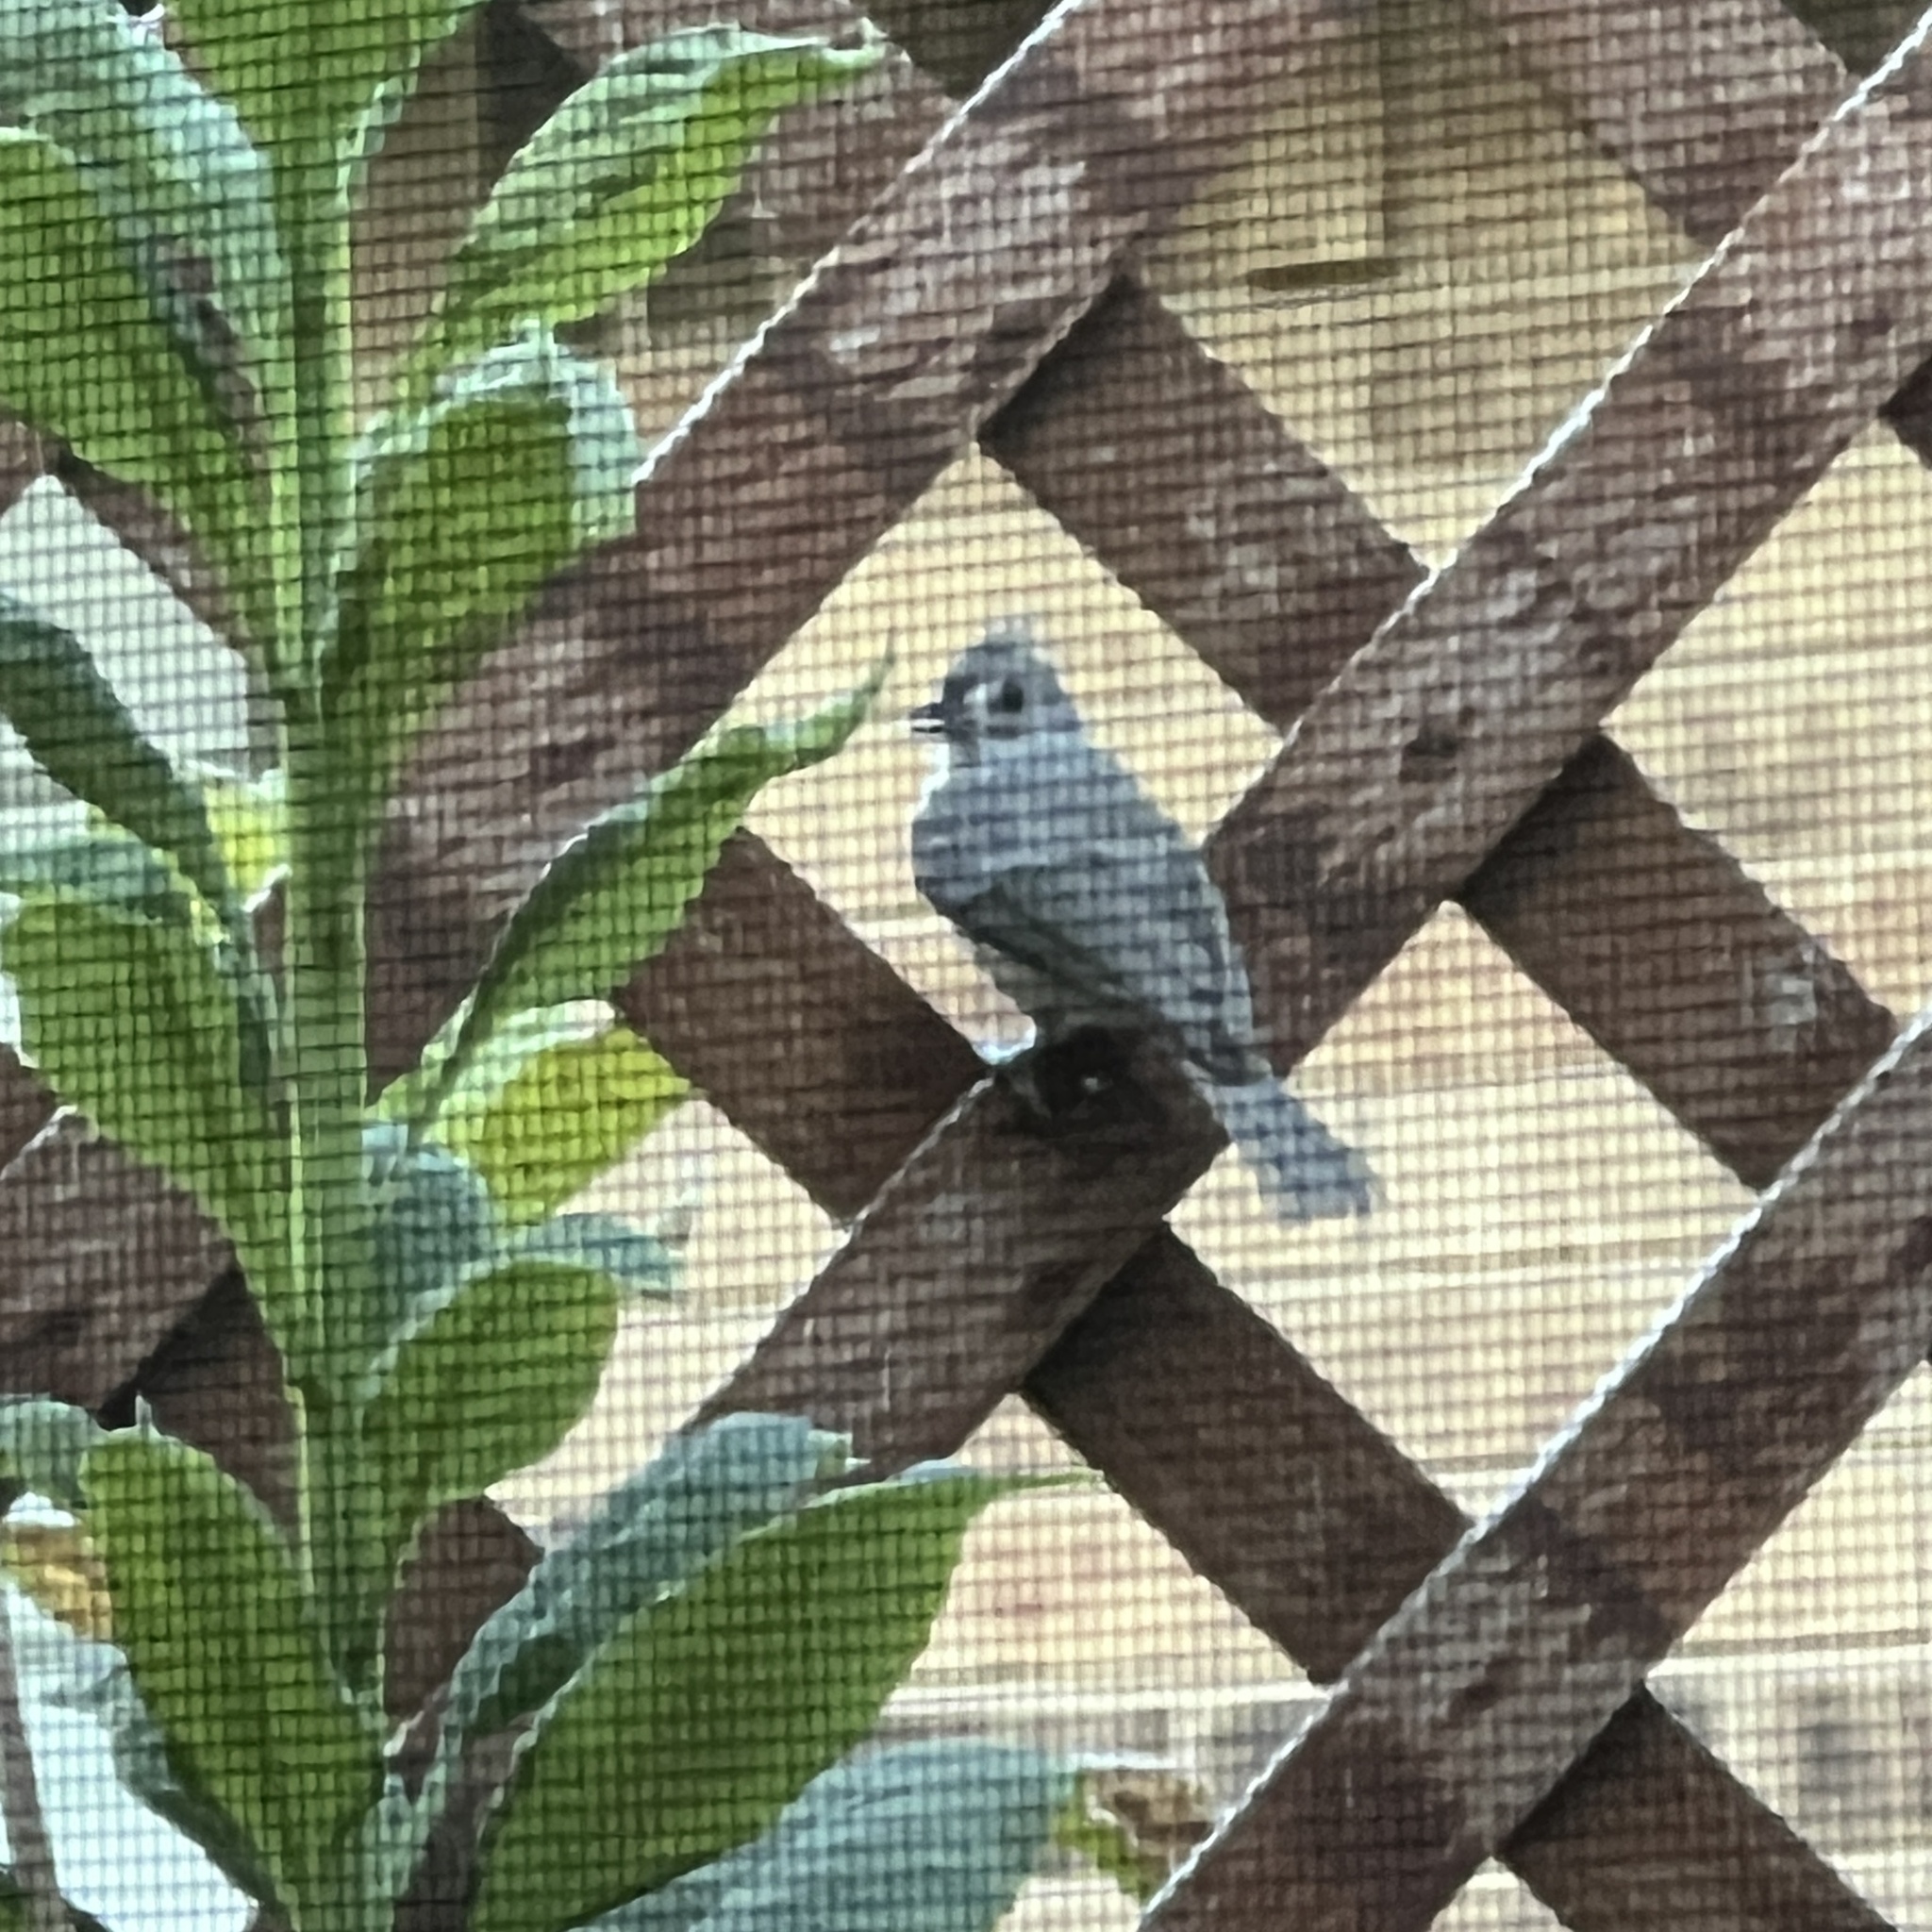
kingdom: Animalia
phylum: Chordata
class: Aves
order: Passeriformes
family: Paridae
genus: Baeolophus
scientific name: Baeolophus bicolor
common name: Tufted titmouse
